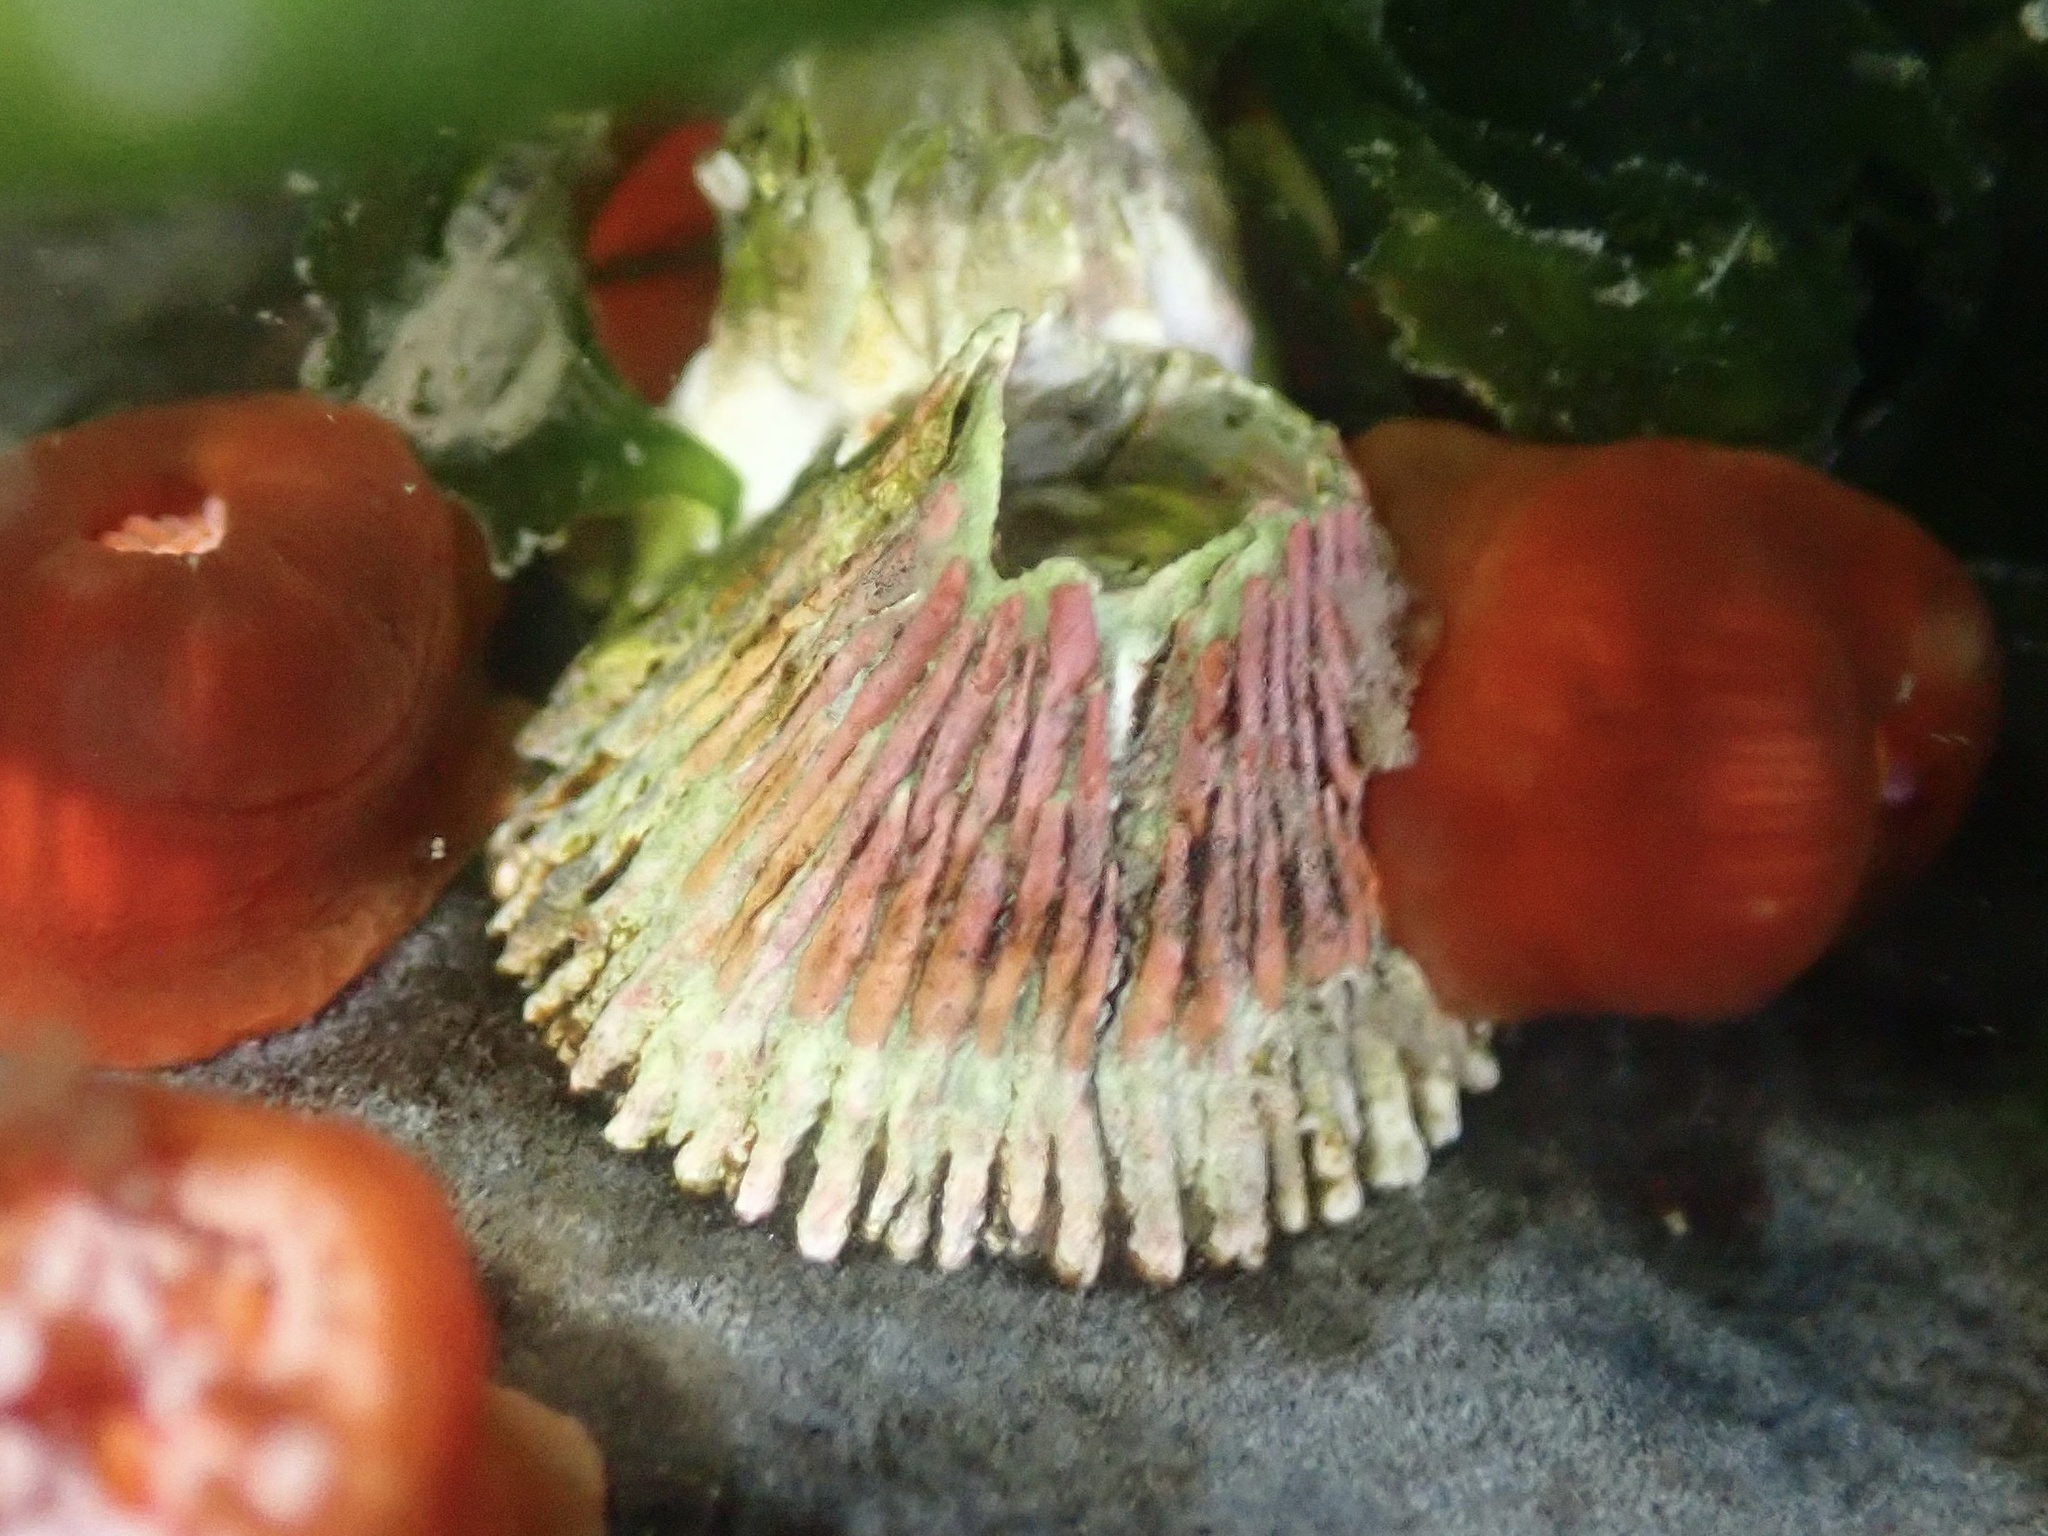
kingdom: Animalia
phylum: Arthropoda
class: Maxillopoda
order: Sessilia
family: Tetraclitidae
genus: Tetraclita
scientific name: Tetraclita rubescens
